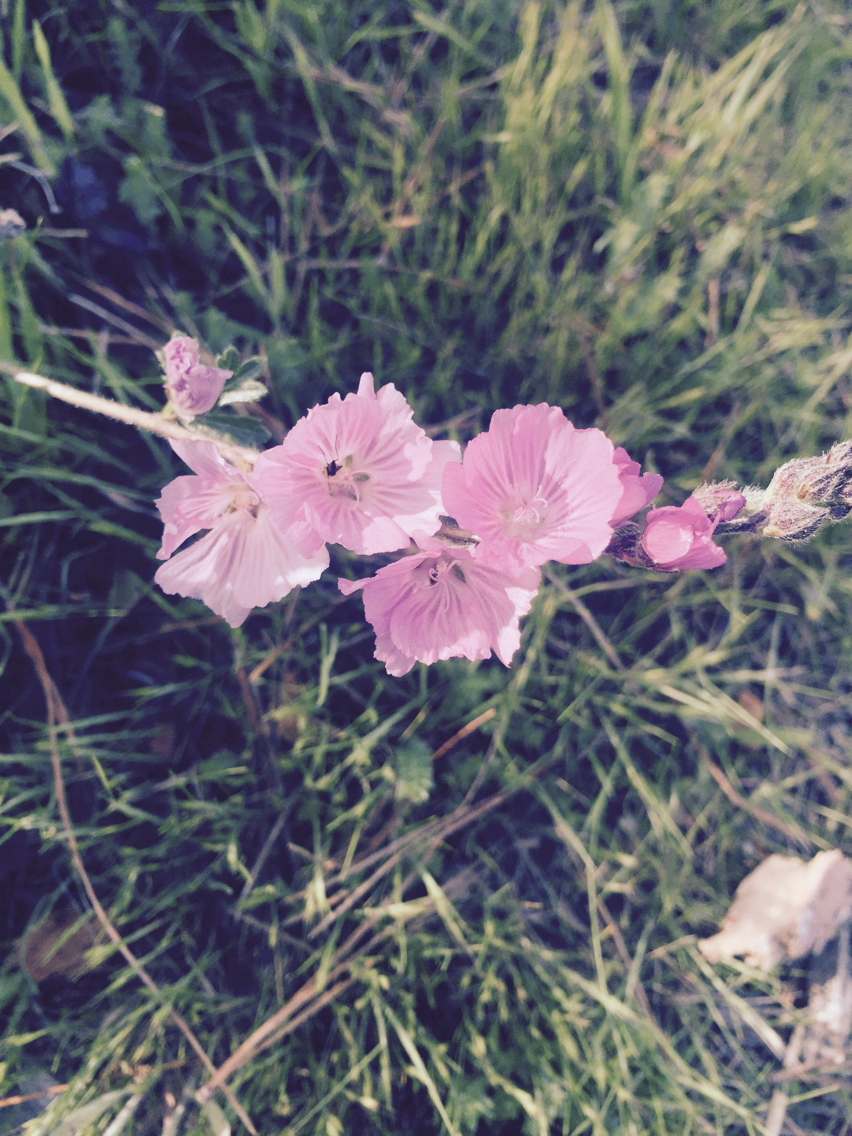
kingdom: Plantae
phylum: Tracheophyta
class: Magnoliopsida
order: Malvales
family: Malvaceae
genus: Sidalcea
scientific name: Sidalcea malviflora
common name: Greek mallow
